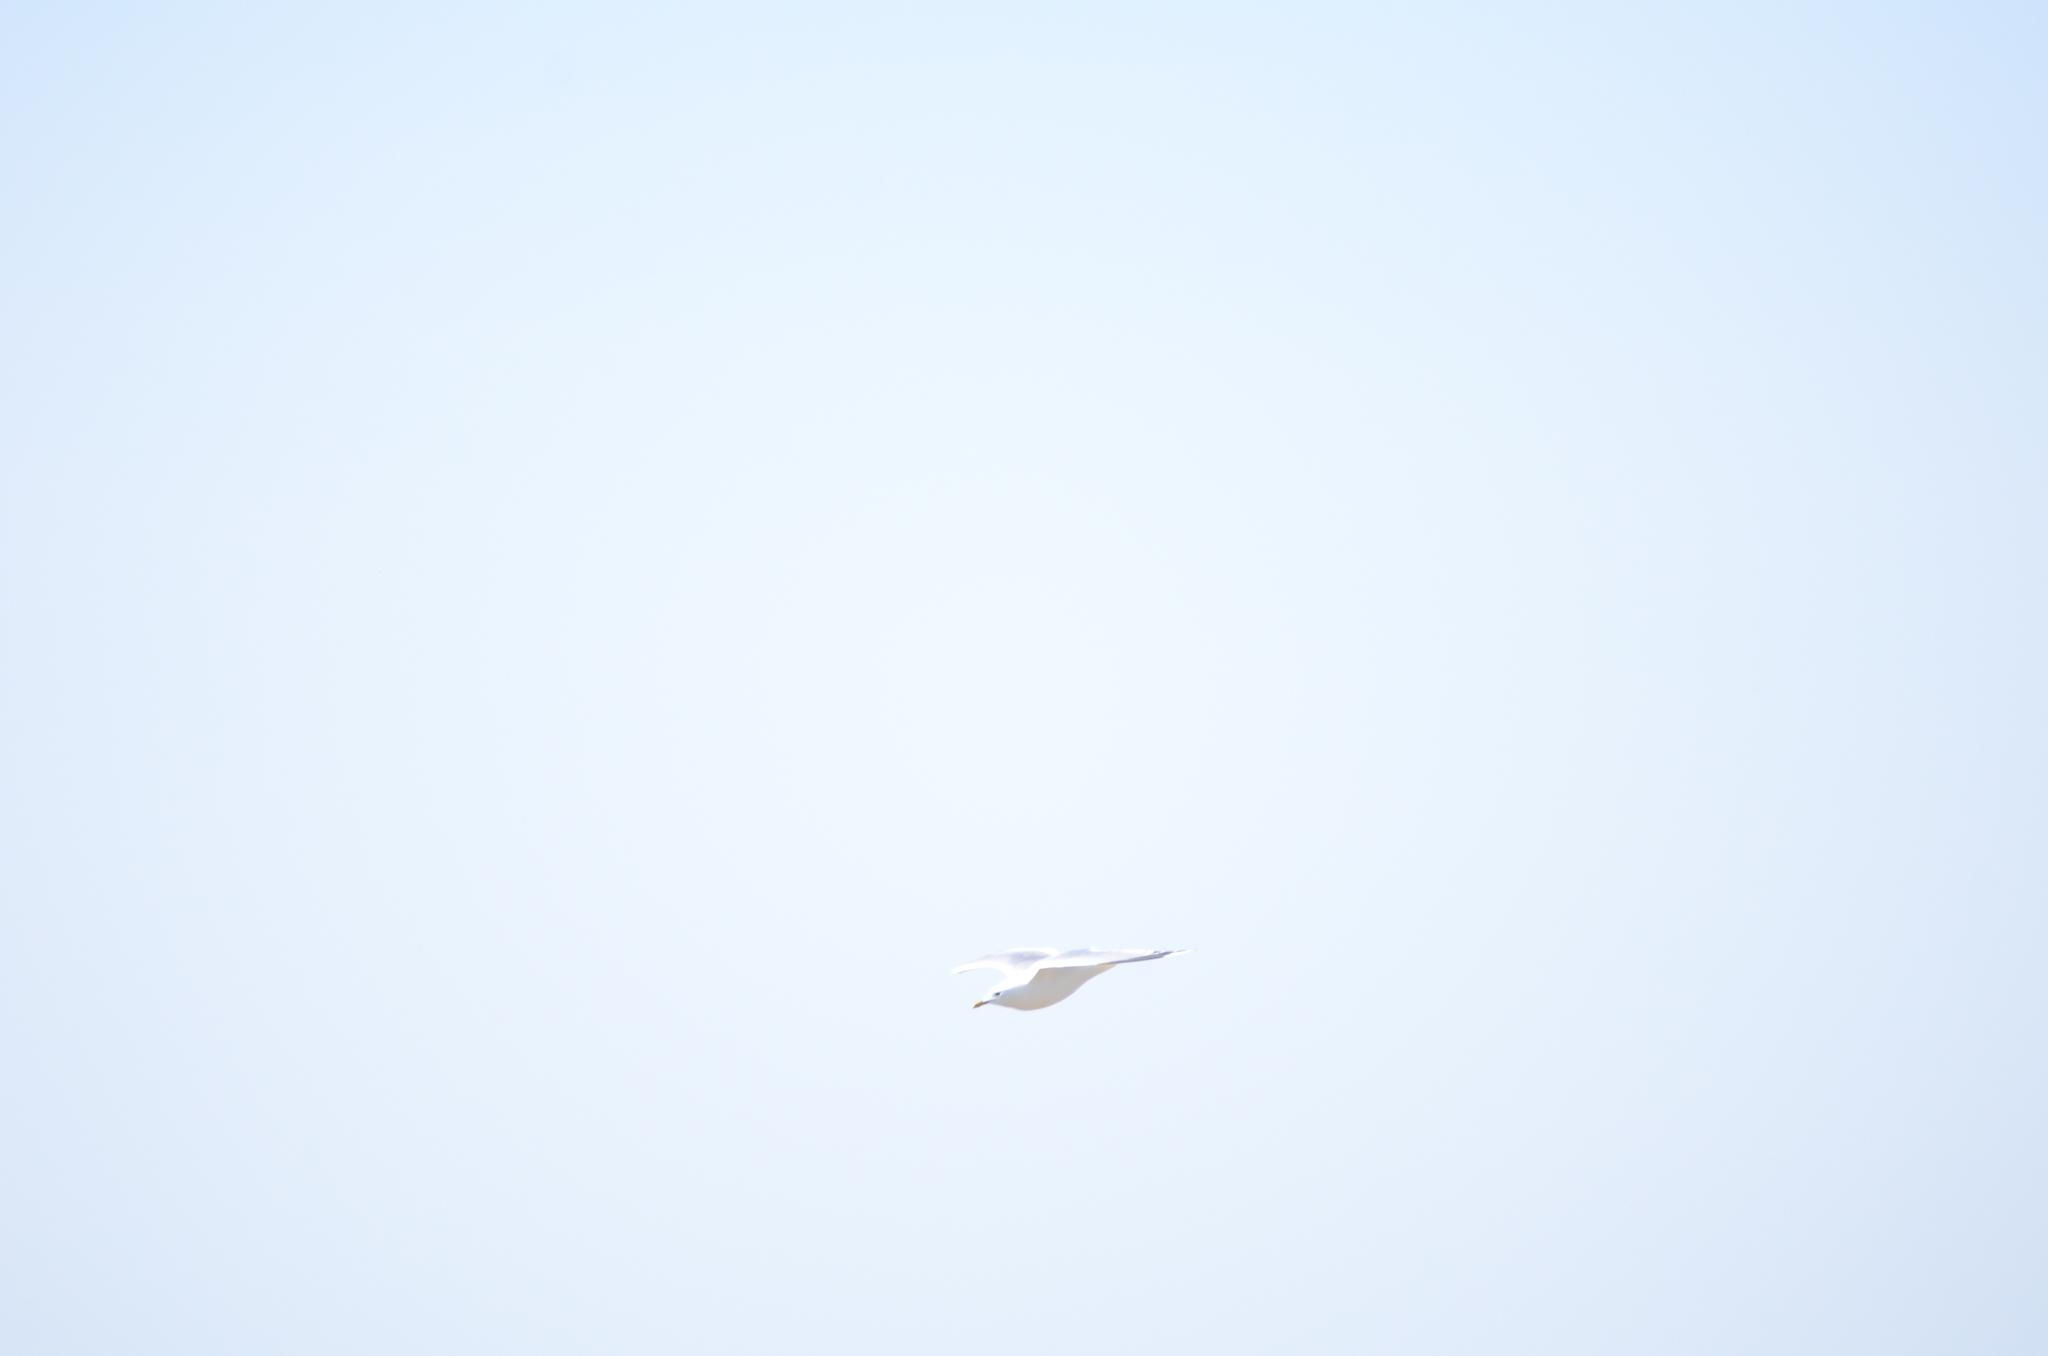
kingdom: Animalia
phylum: Chordata
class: Aves
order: Charadriiformes
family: Laridae
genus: Larus
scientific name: Larus canus
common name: Mew gull
